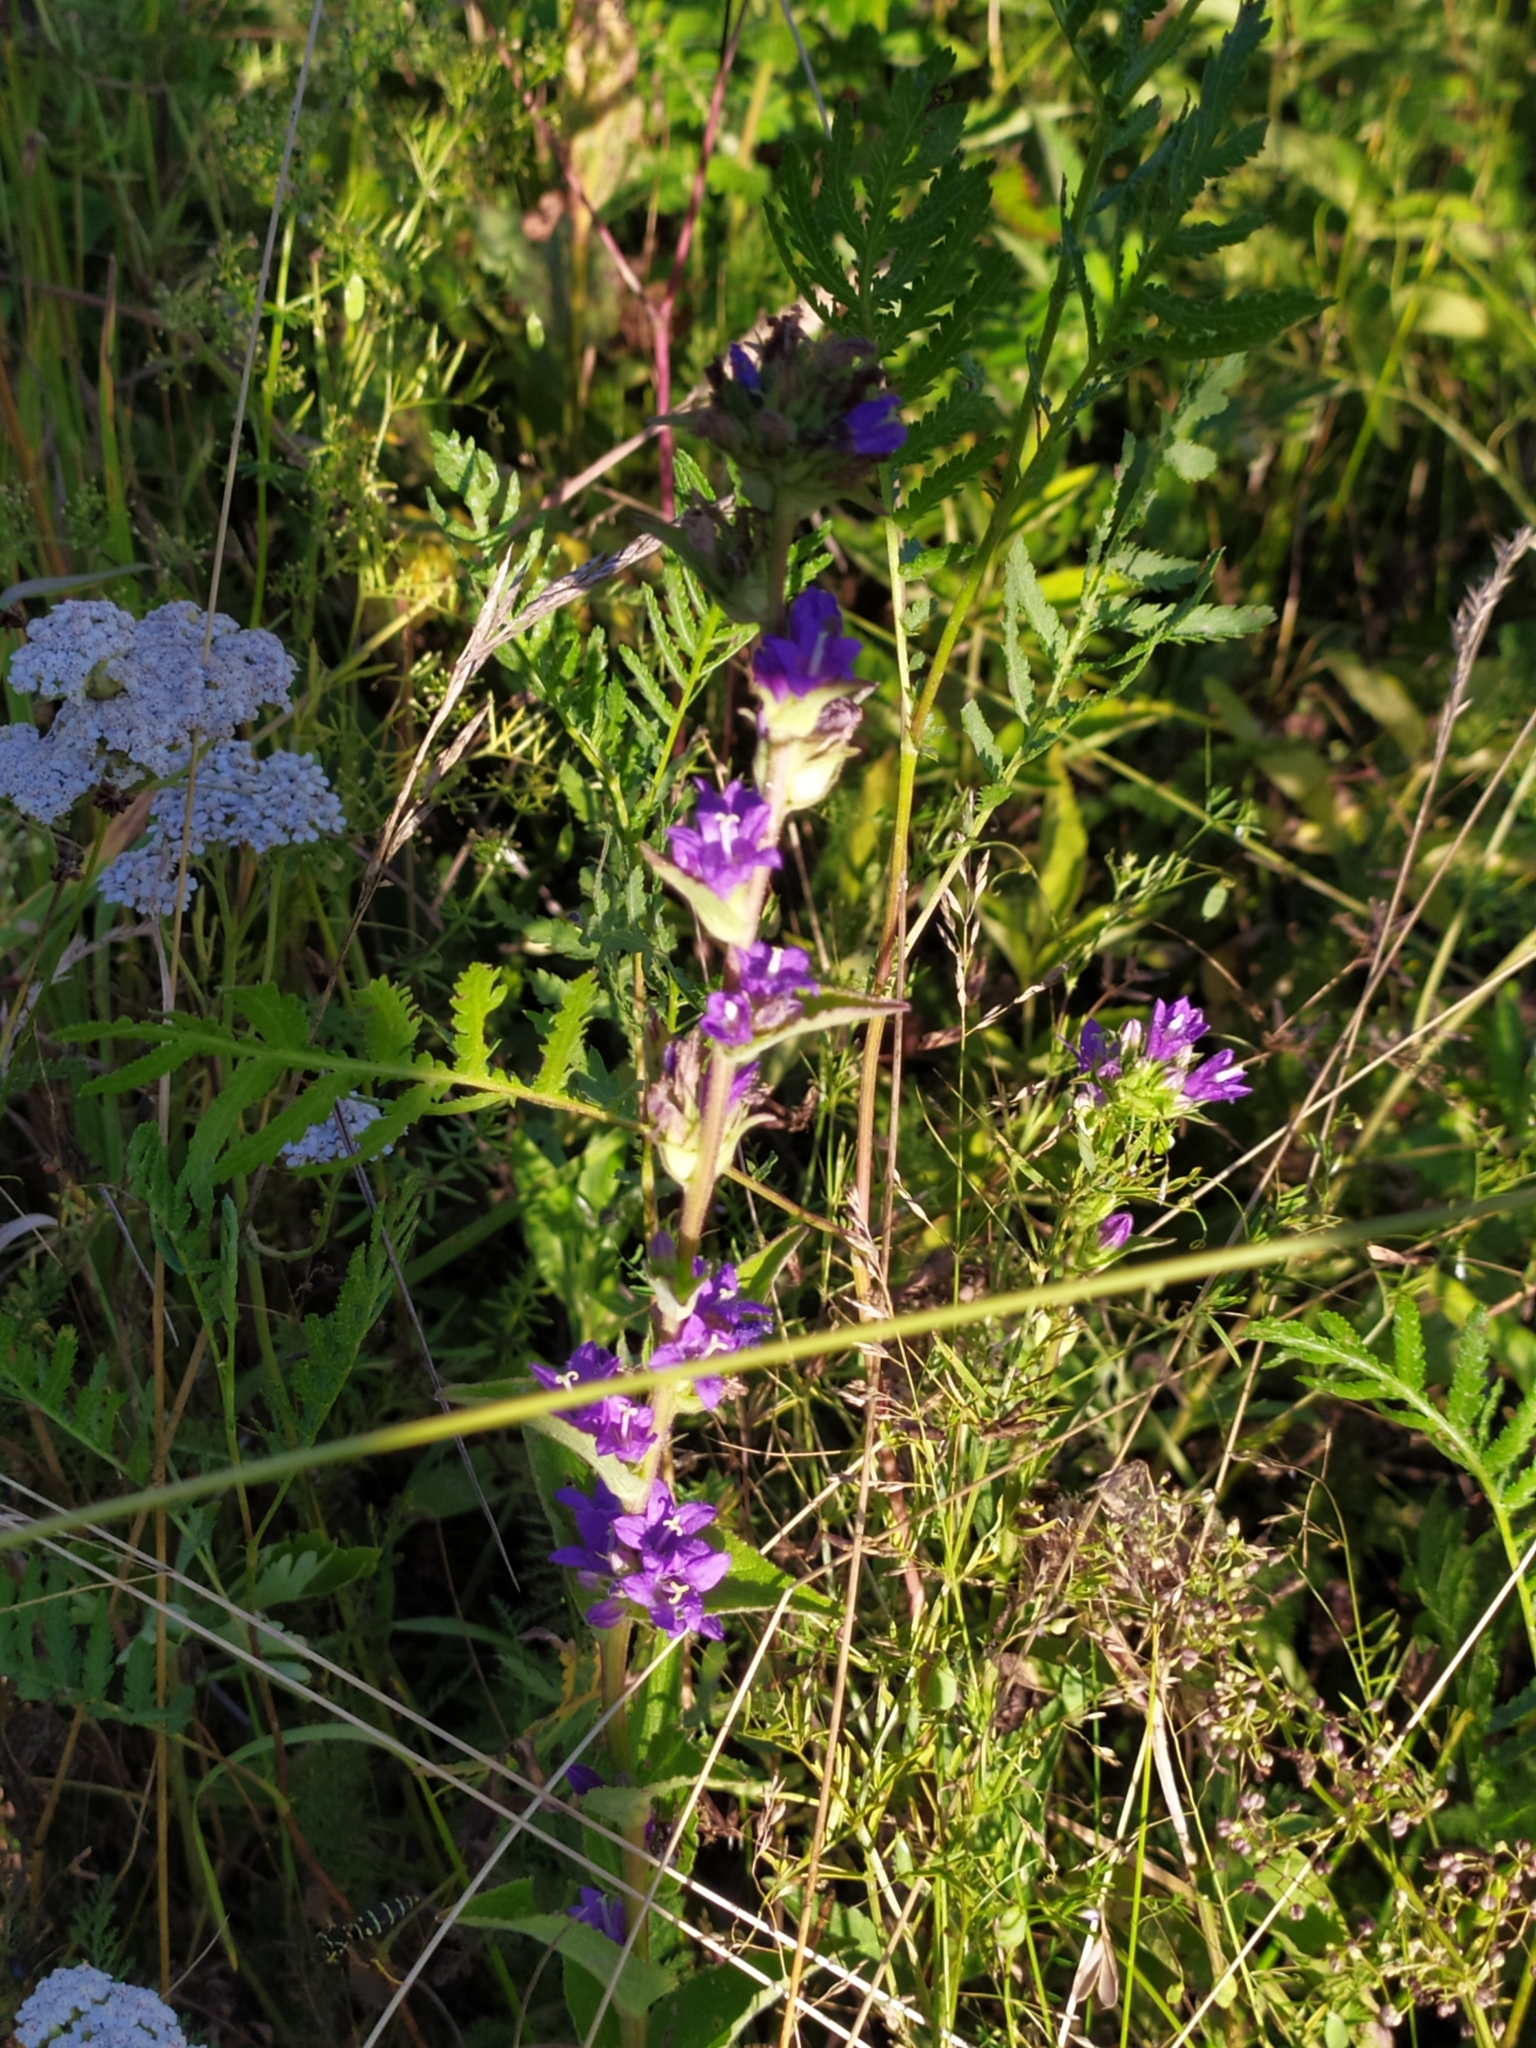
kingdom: Plantae
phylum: Tracheophyta
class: Magnoliopsida
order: Asterales
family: Campanulaceae
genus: Campanula
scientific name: Campanula glomerata
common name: Clustered bellflower
